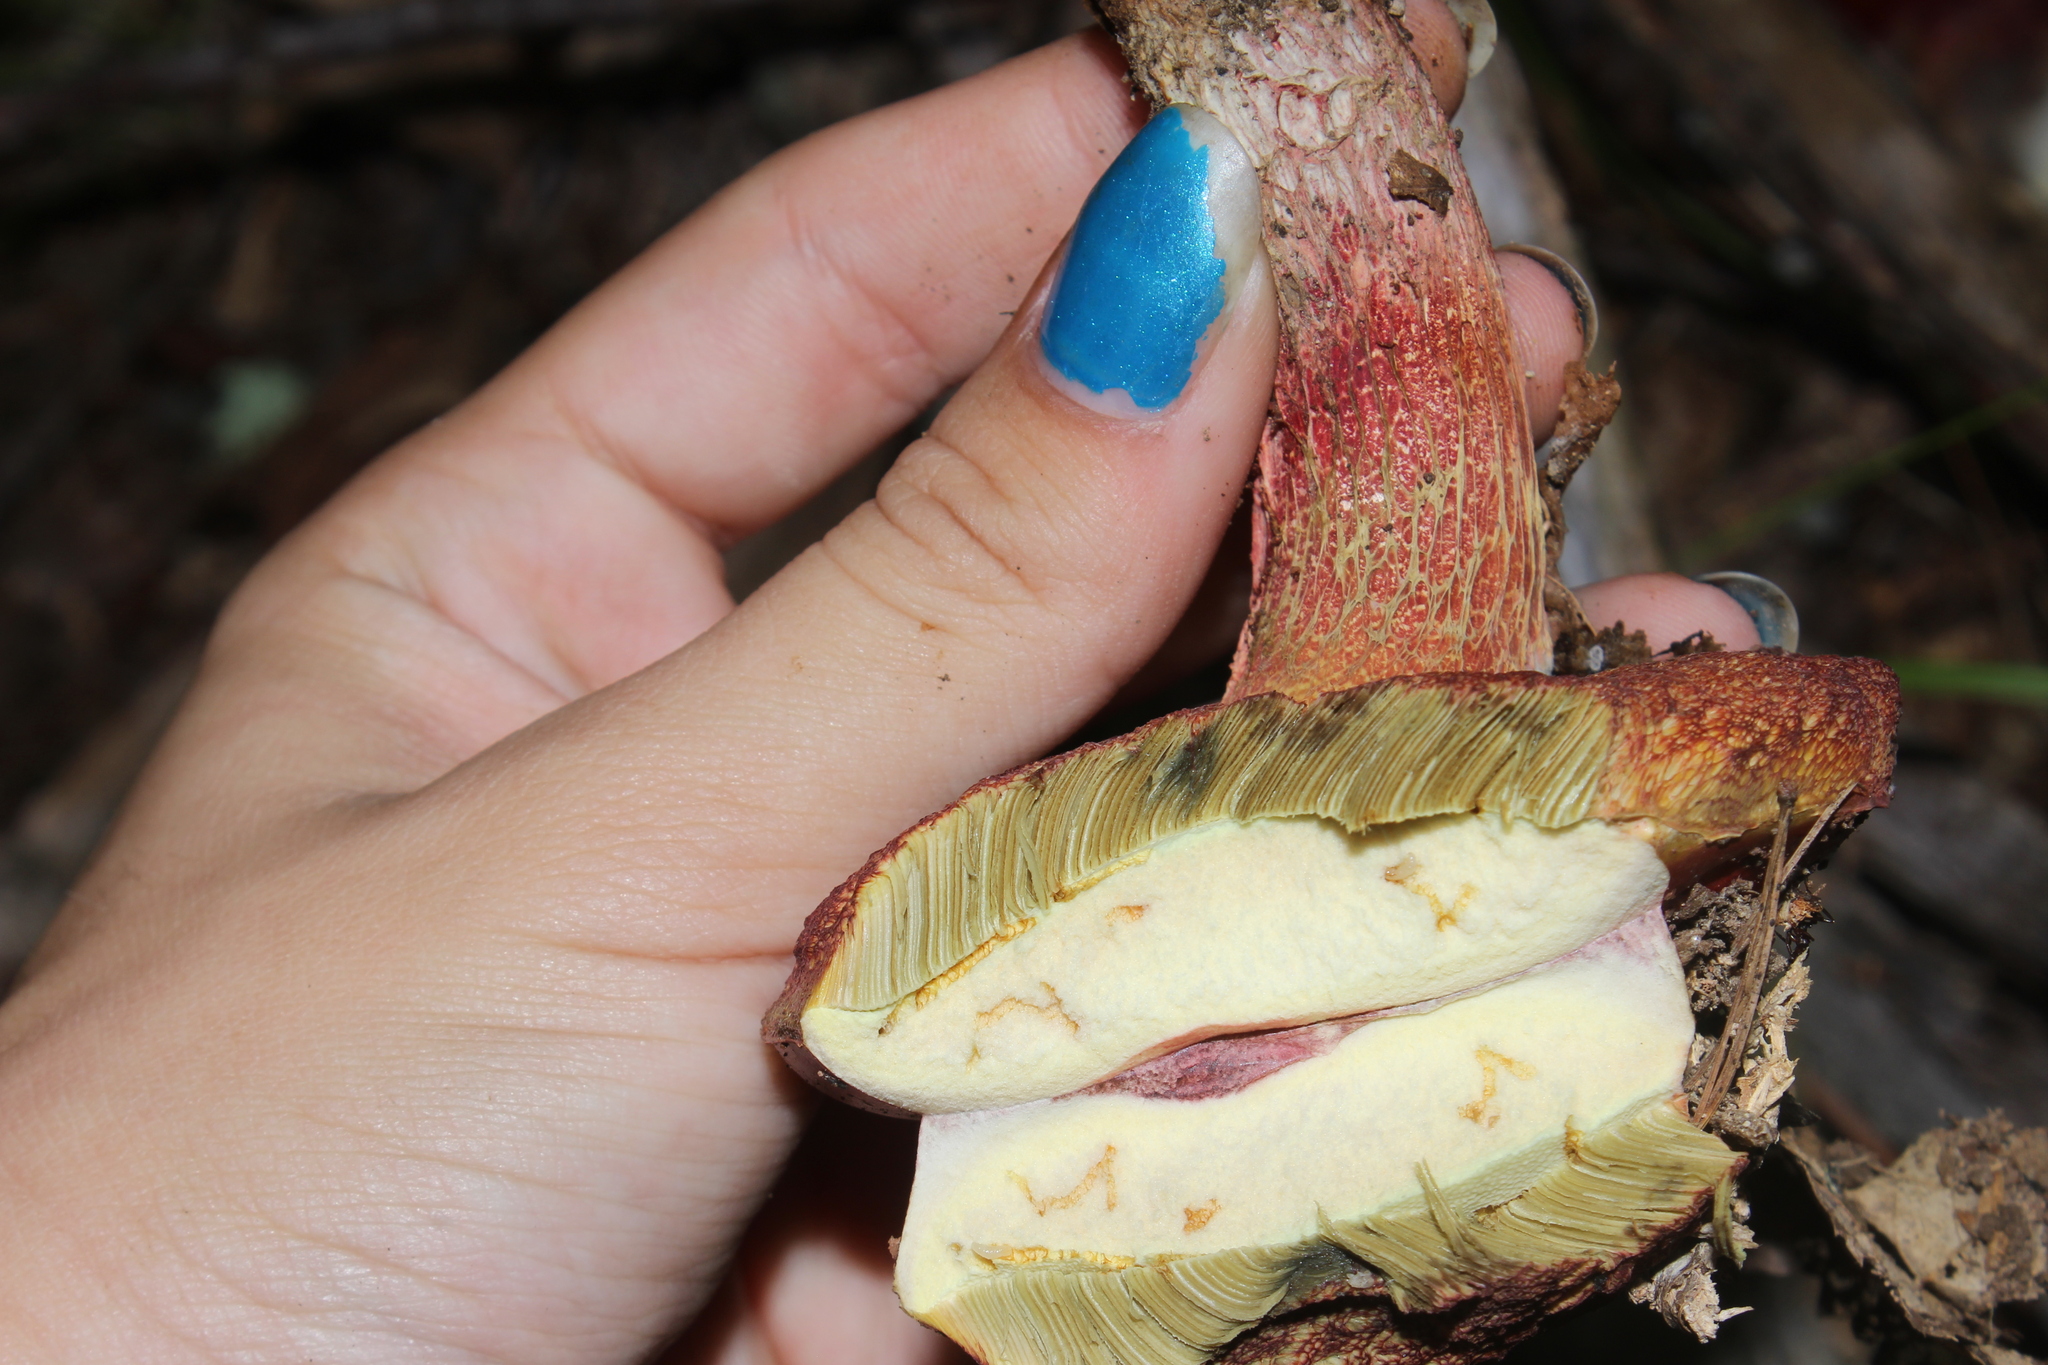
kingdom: Fungi
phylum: Basidiomycota
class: Agaricomycetes
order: Boletales
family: Boletaceae
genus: Butyriboletus
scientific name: Butyriboletus frostii
